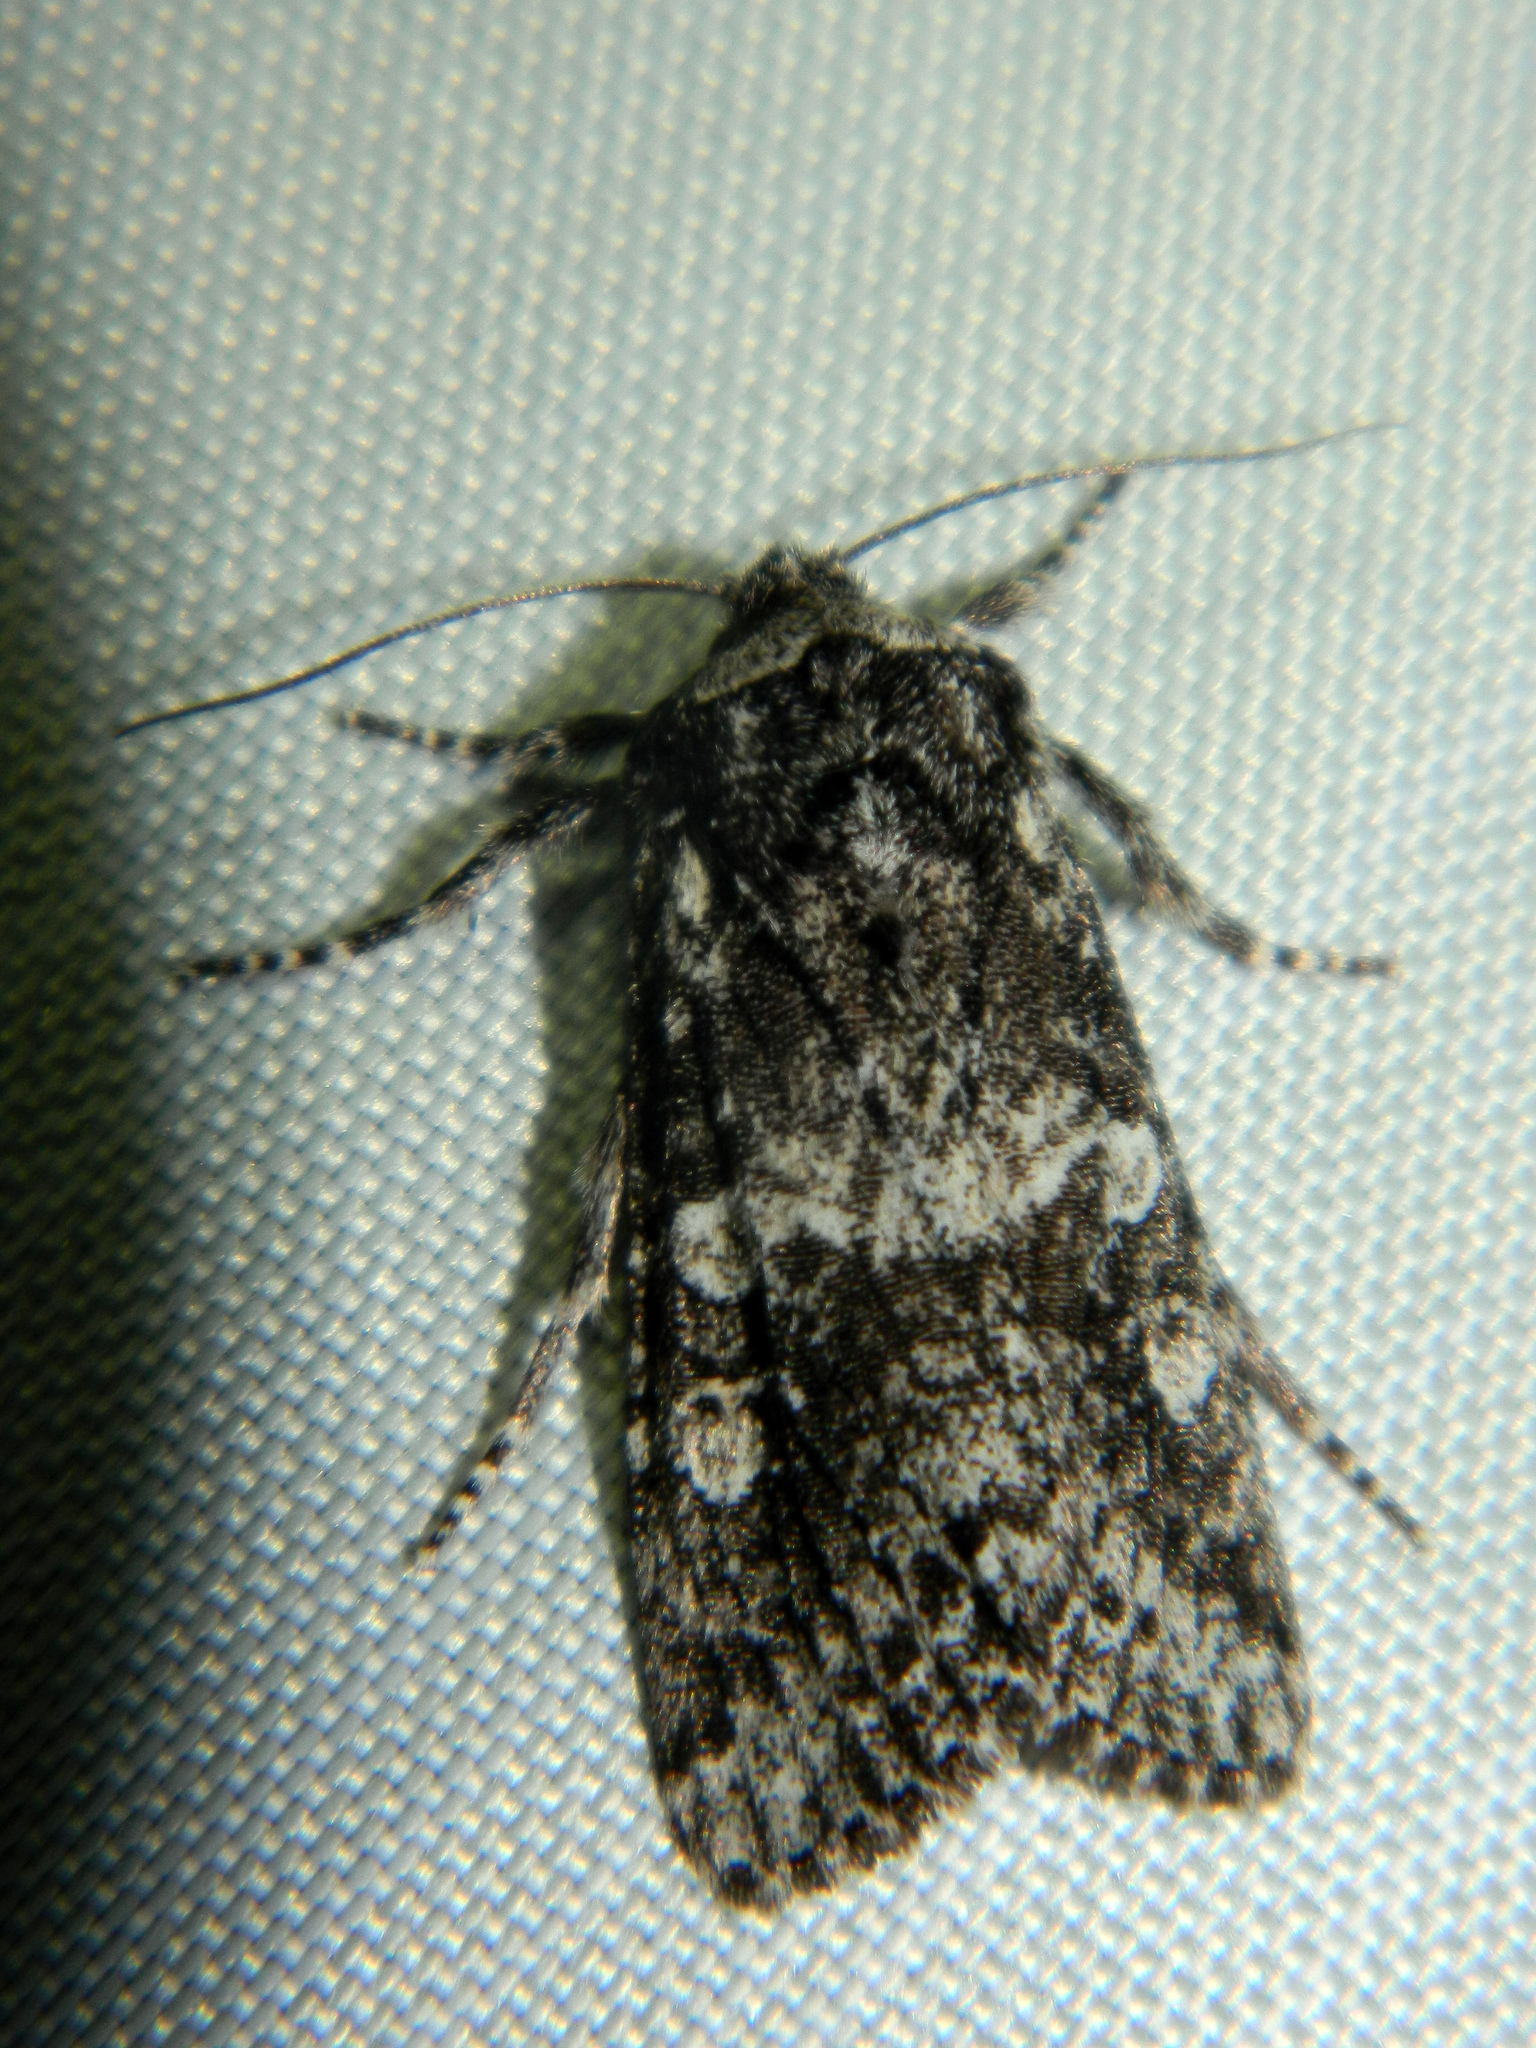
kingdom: Animalia
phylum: Arthropoda
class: Insecta
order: Lepidoptera
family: Noctuidae
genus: Egira
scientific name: Egira dolosa
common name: Lined black aspen cat.
